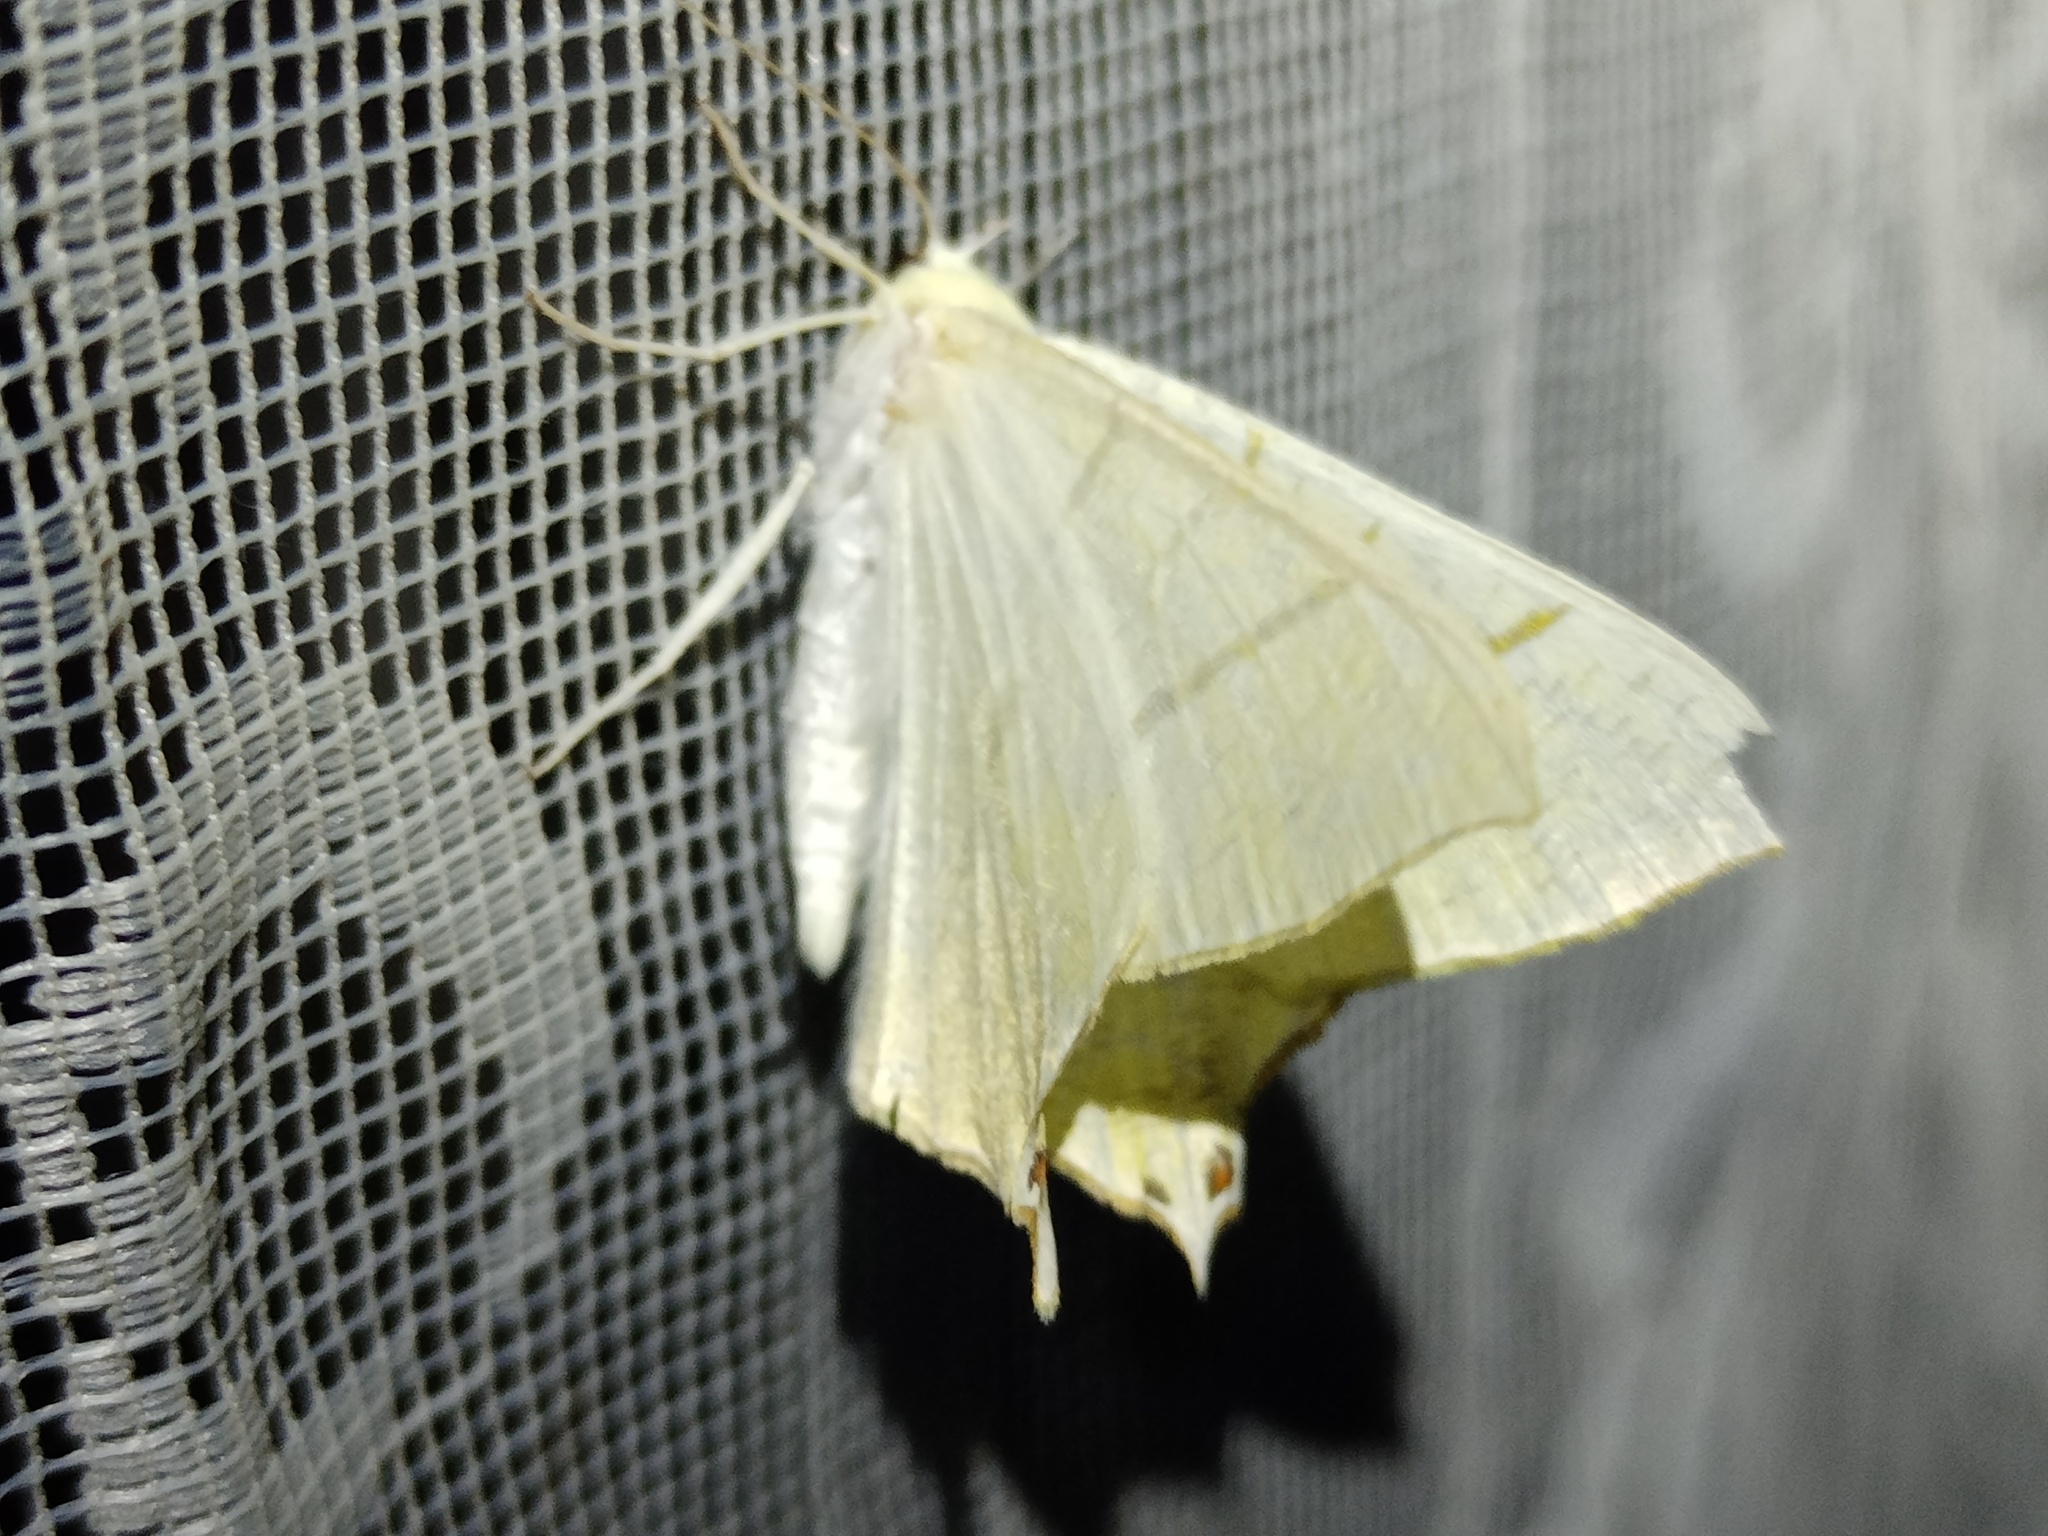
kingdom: Animalia
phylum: Arthropoda
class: Insecta
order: Lepidoptera
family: Geometridae
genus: Ourapteryx
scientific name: Ourapteryx sambucaria
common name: Swallow-tailed moth
